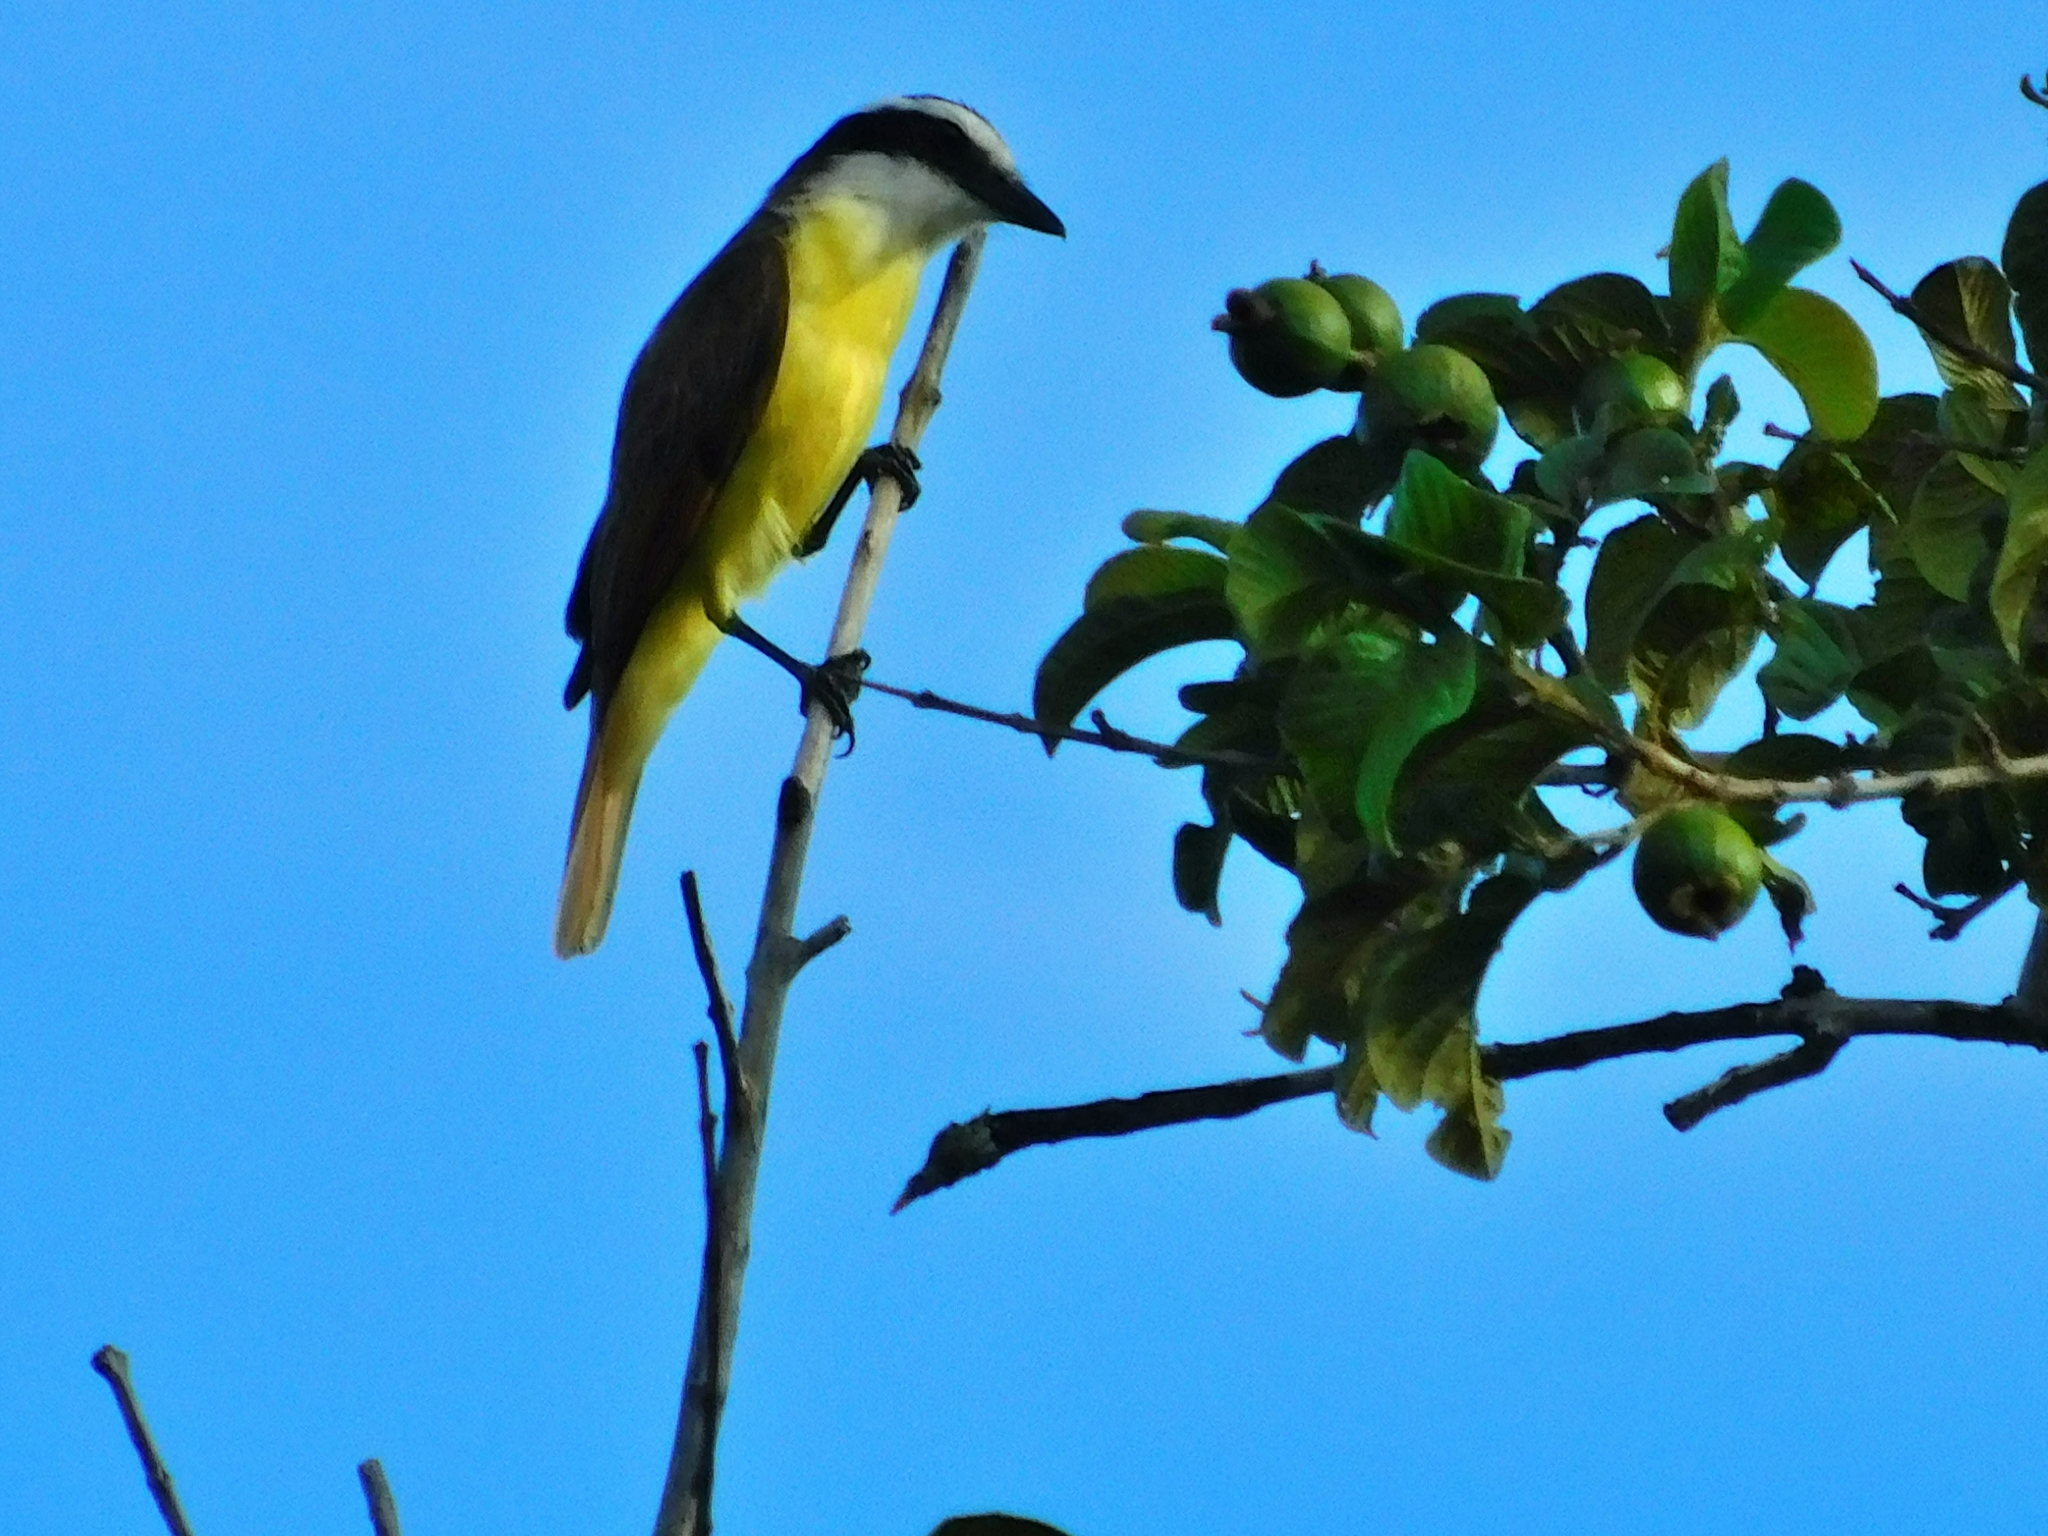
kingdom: Animalia
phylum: Chordata
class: Aves
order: Passeriformes
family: Tyrannidae
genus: Pitangus
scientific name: Pitangus sulphuratus
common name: Great kiskadee
